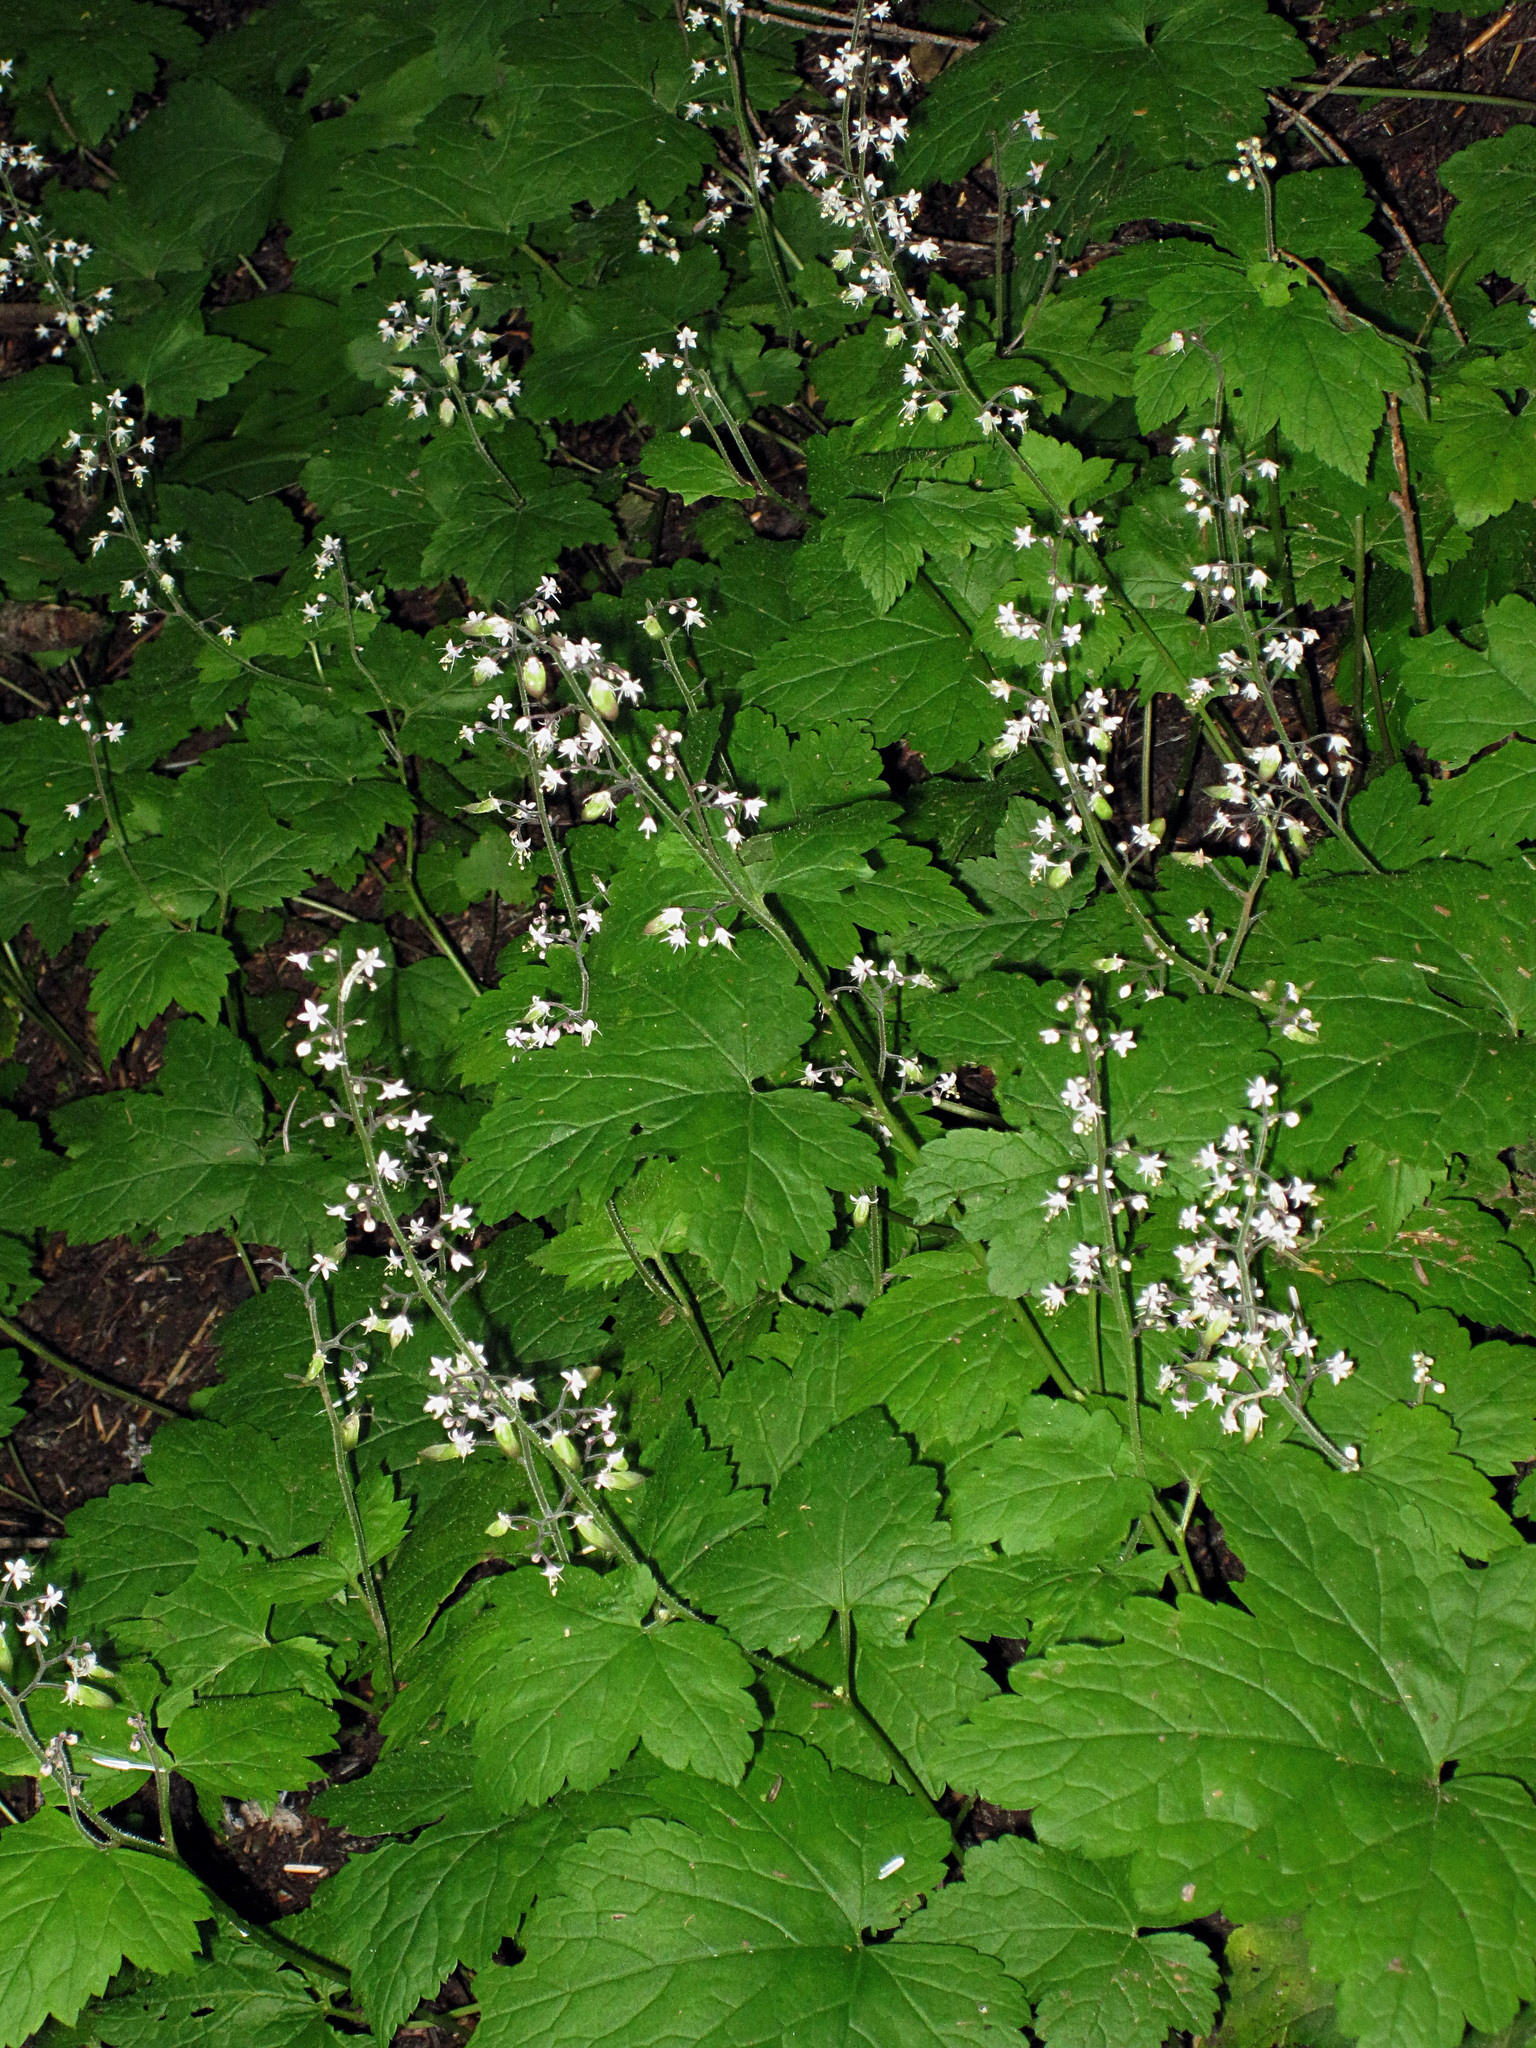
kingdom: Plantae
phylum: Tracheophyta
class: Magnoliopsida
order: Saxifragales
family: Saxifragaceae
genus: Tiarella
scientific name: Tiarella trifoliata
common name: Sugar-scoop
